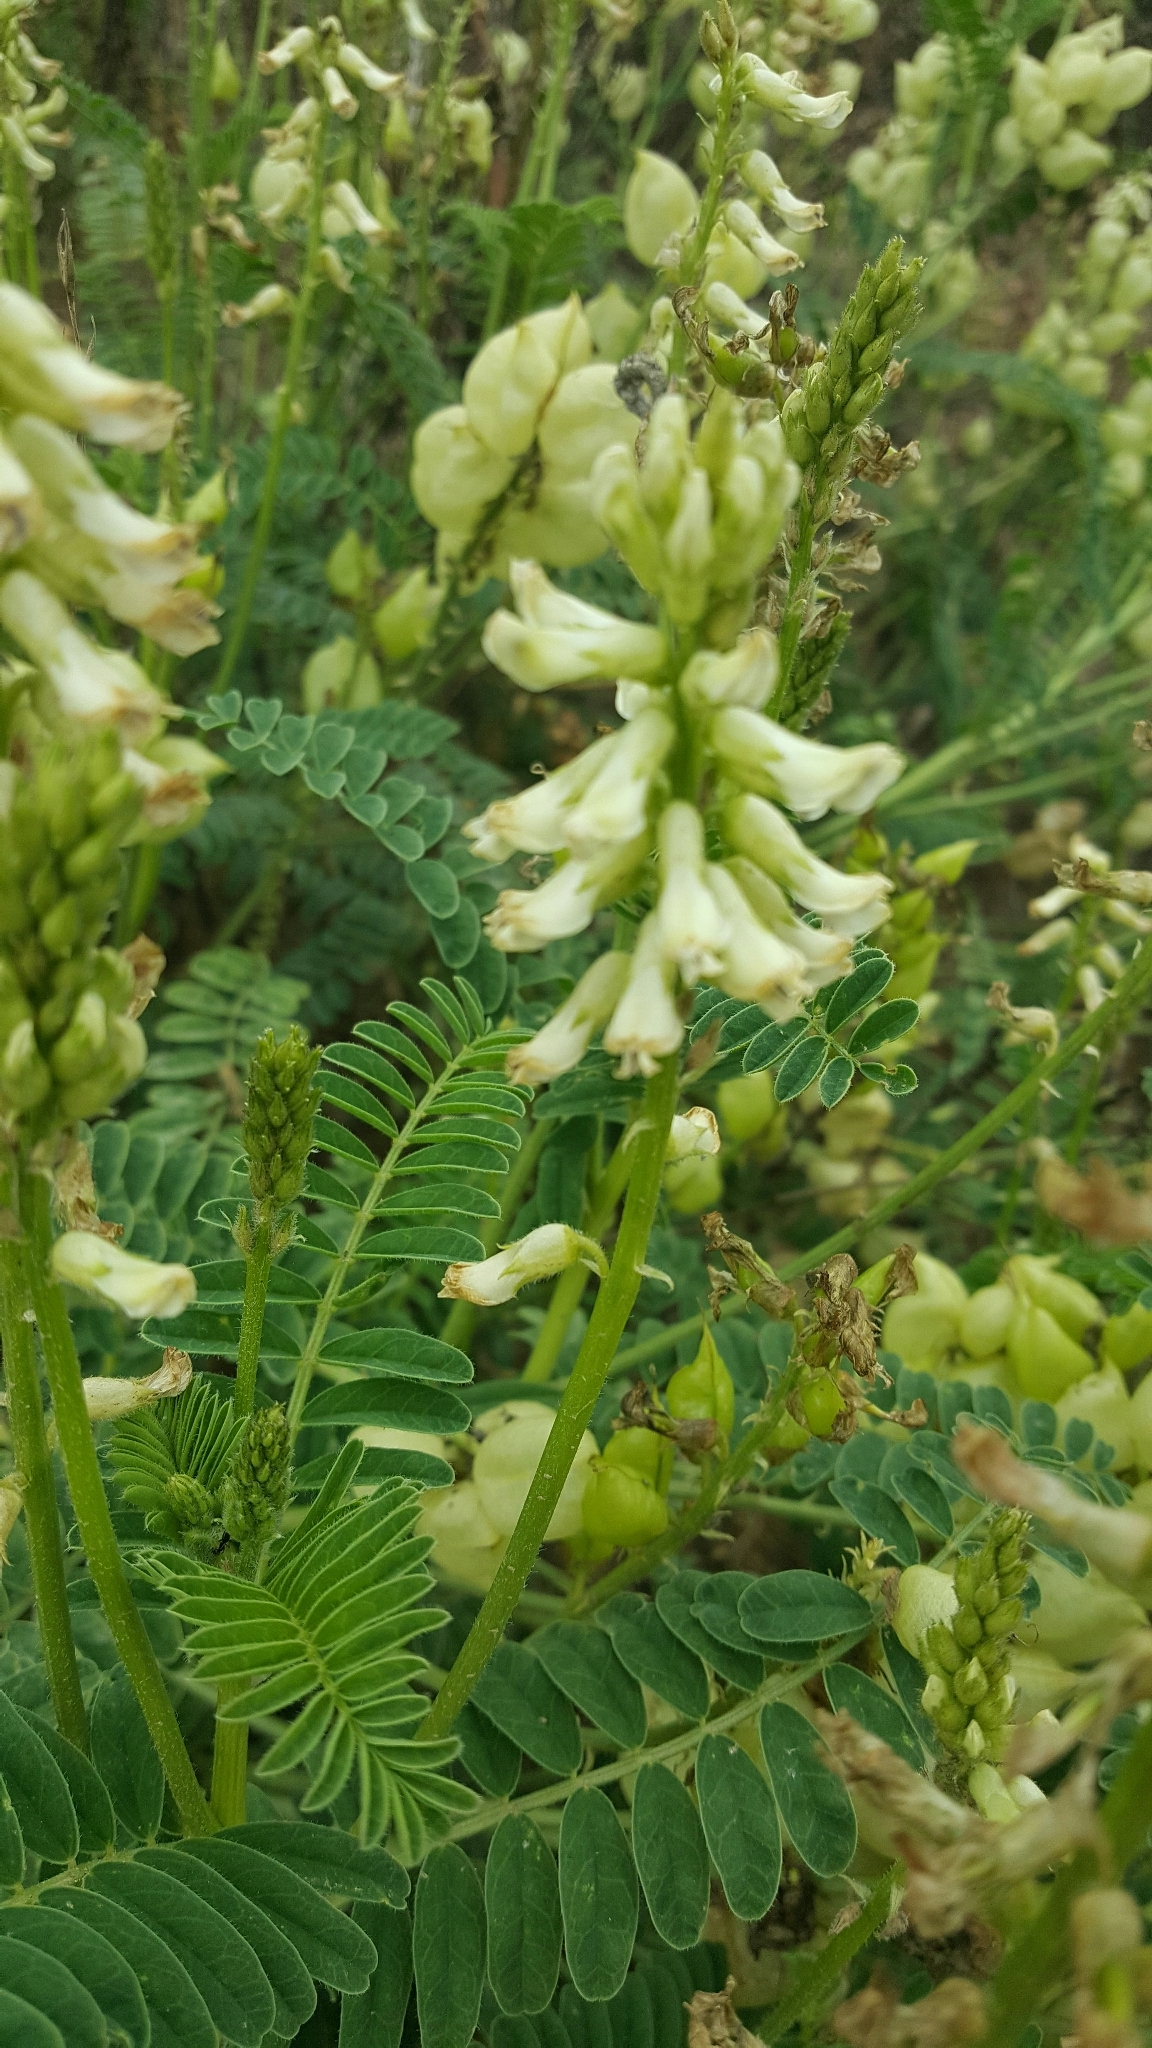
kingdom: Plantae
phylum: Tracheophyta
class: Magnoliopsida
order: Fabales
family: Fabaceae
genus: Astragalus
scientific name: Astragalus nuttallii
